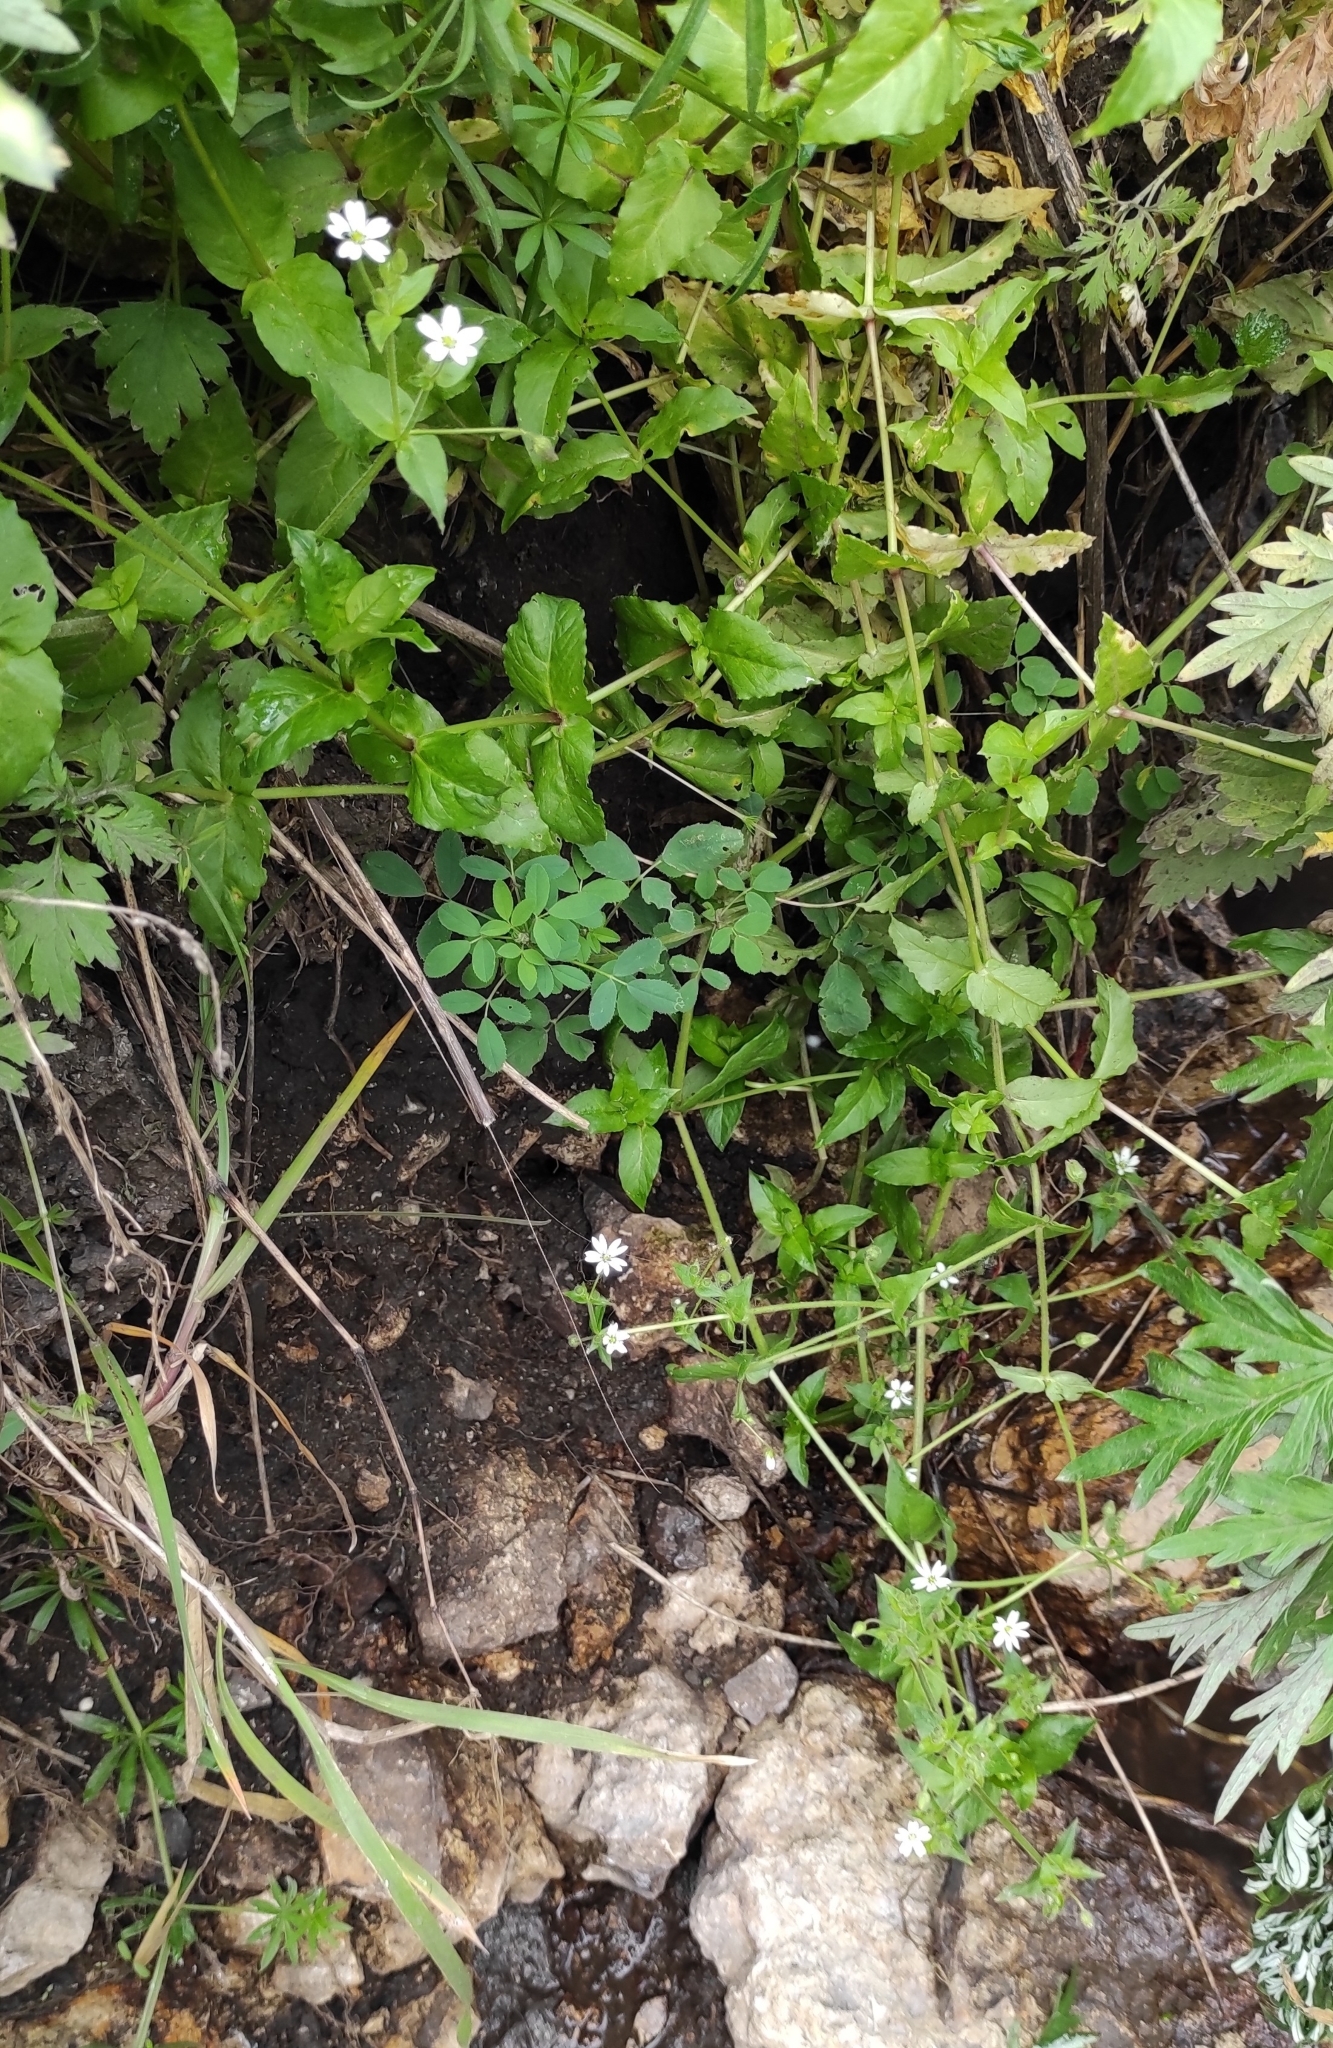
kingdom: Plantae
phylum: Tracheophyta
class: Magnoliopsida
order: Caryophyllales
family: Caryophyllaceae
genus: Stellaria
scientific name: Stellaria aquatica
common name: Water chickweed
